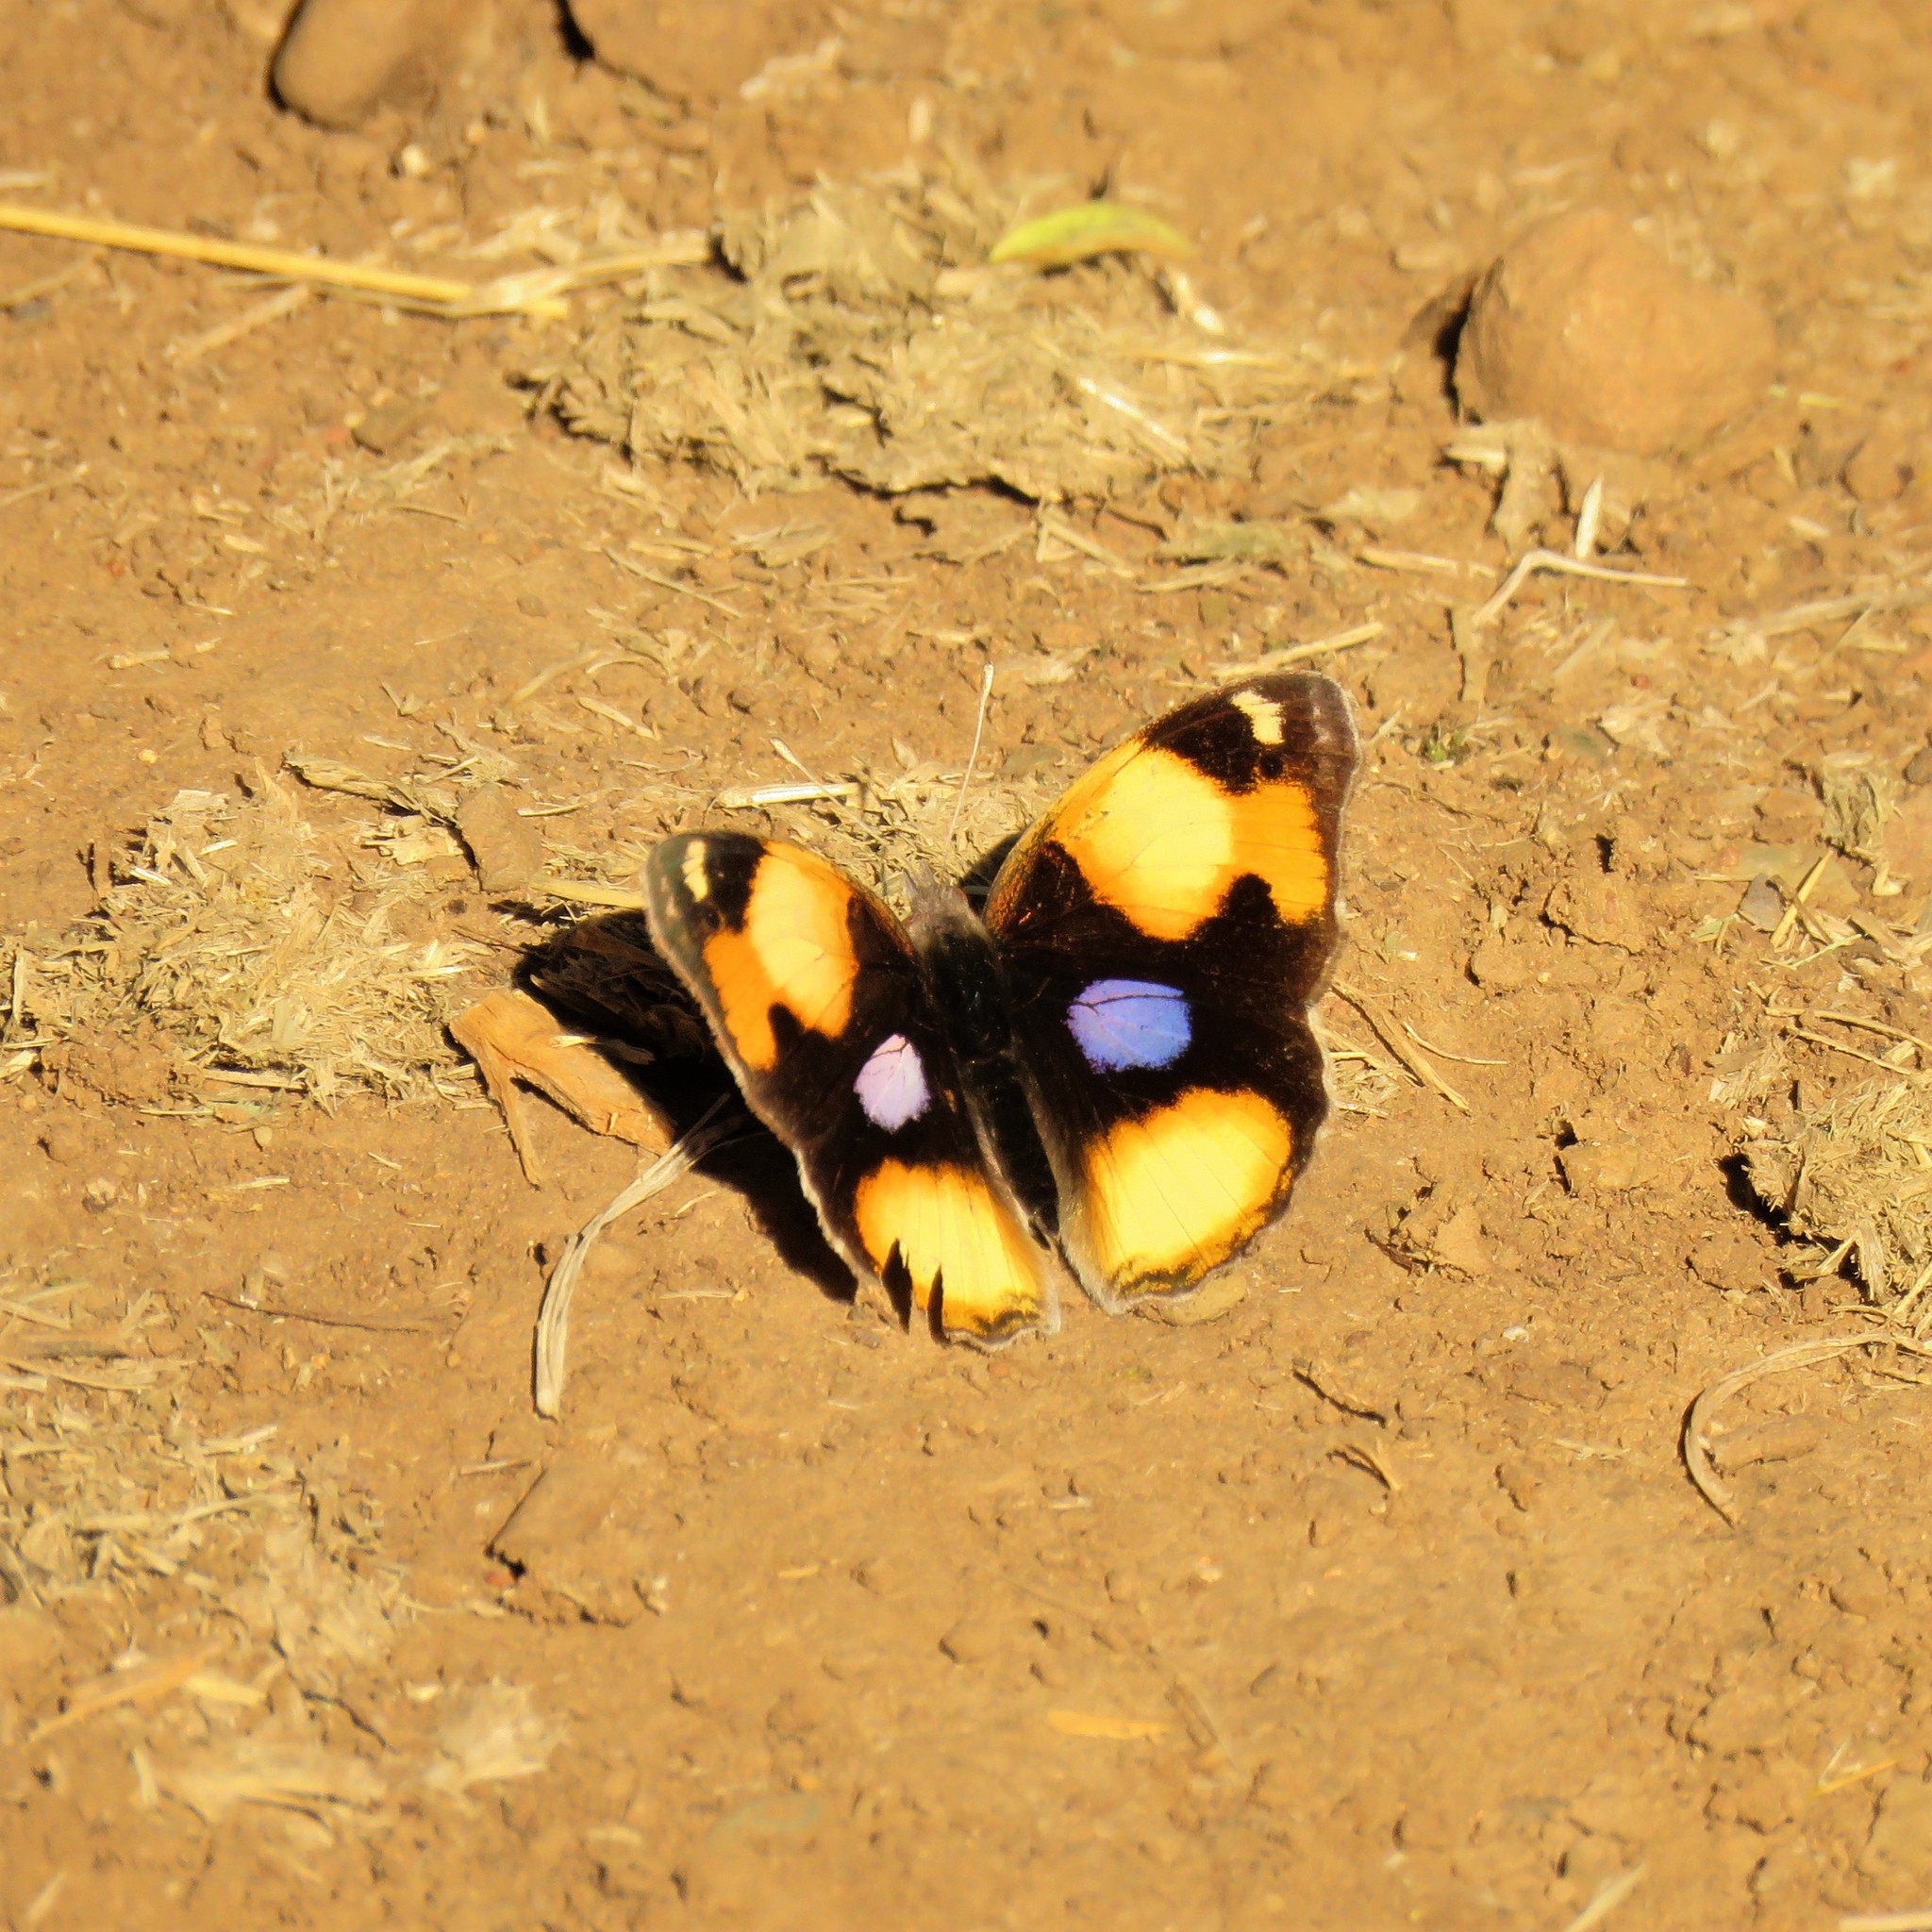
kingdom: Animalia
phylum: Arthropoda
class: Insecta
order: Lepidoptera
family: Nymphalidae
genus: Junonia
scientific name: Junonia hierta
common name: Yellow pansy
